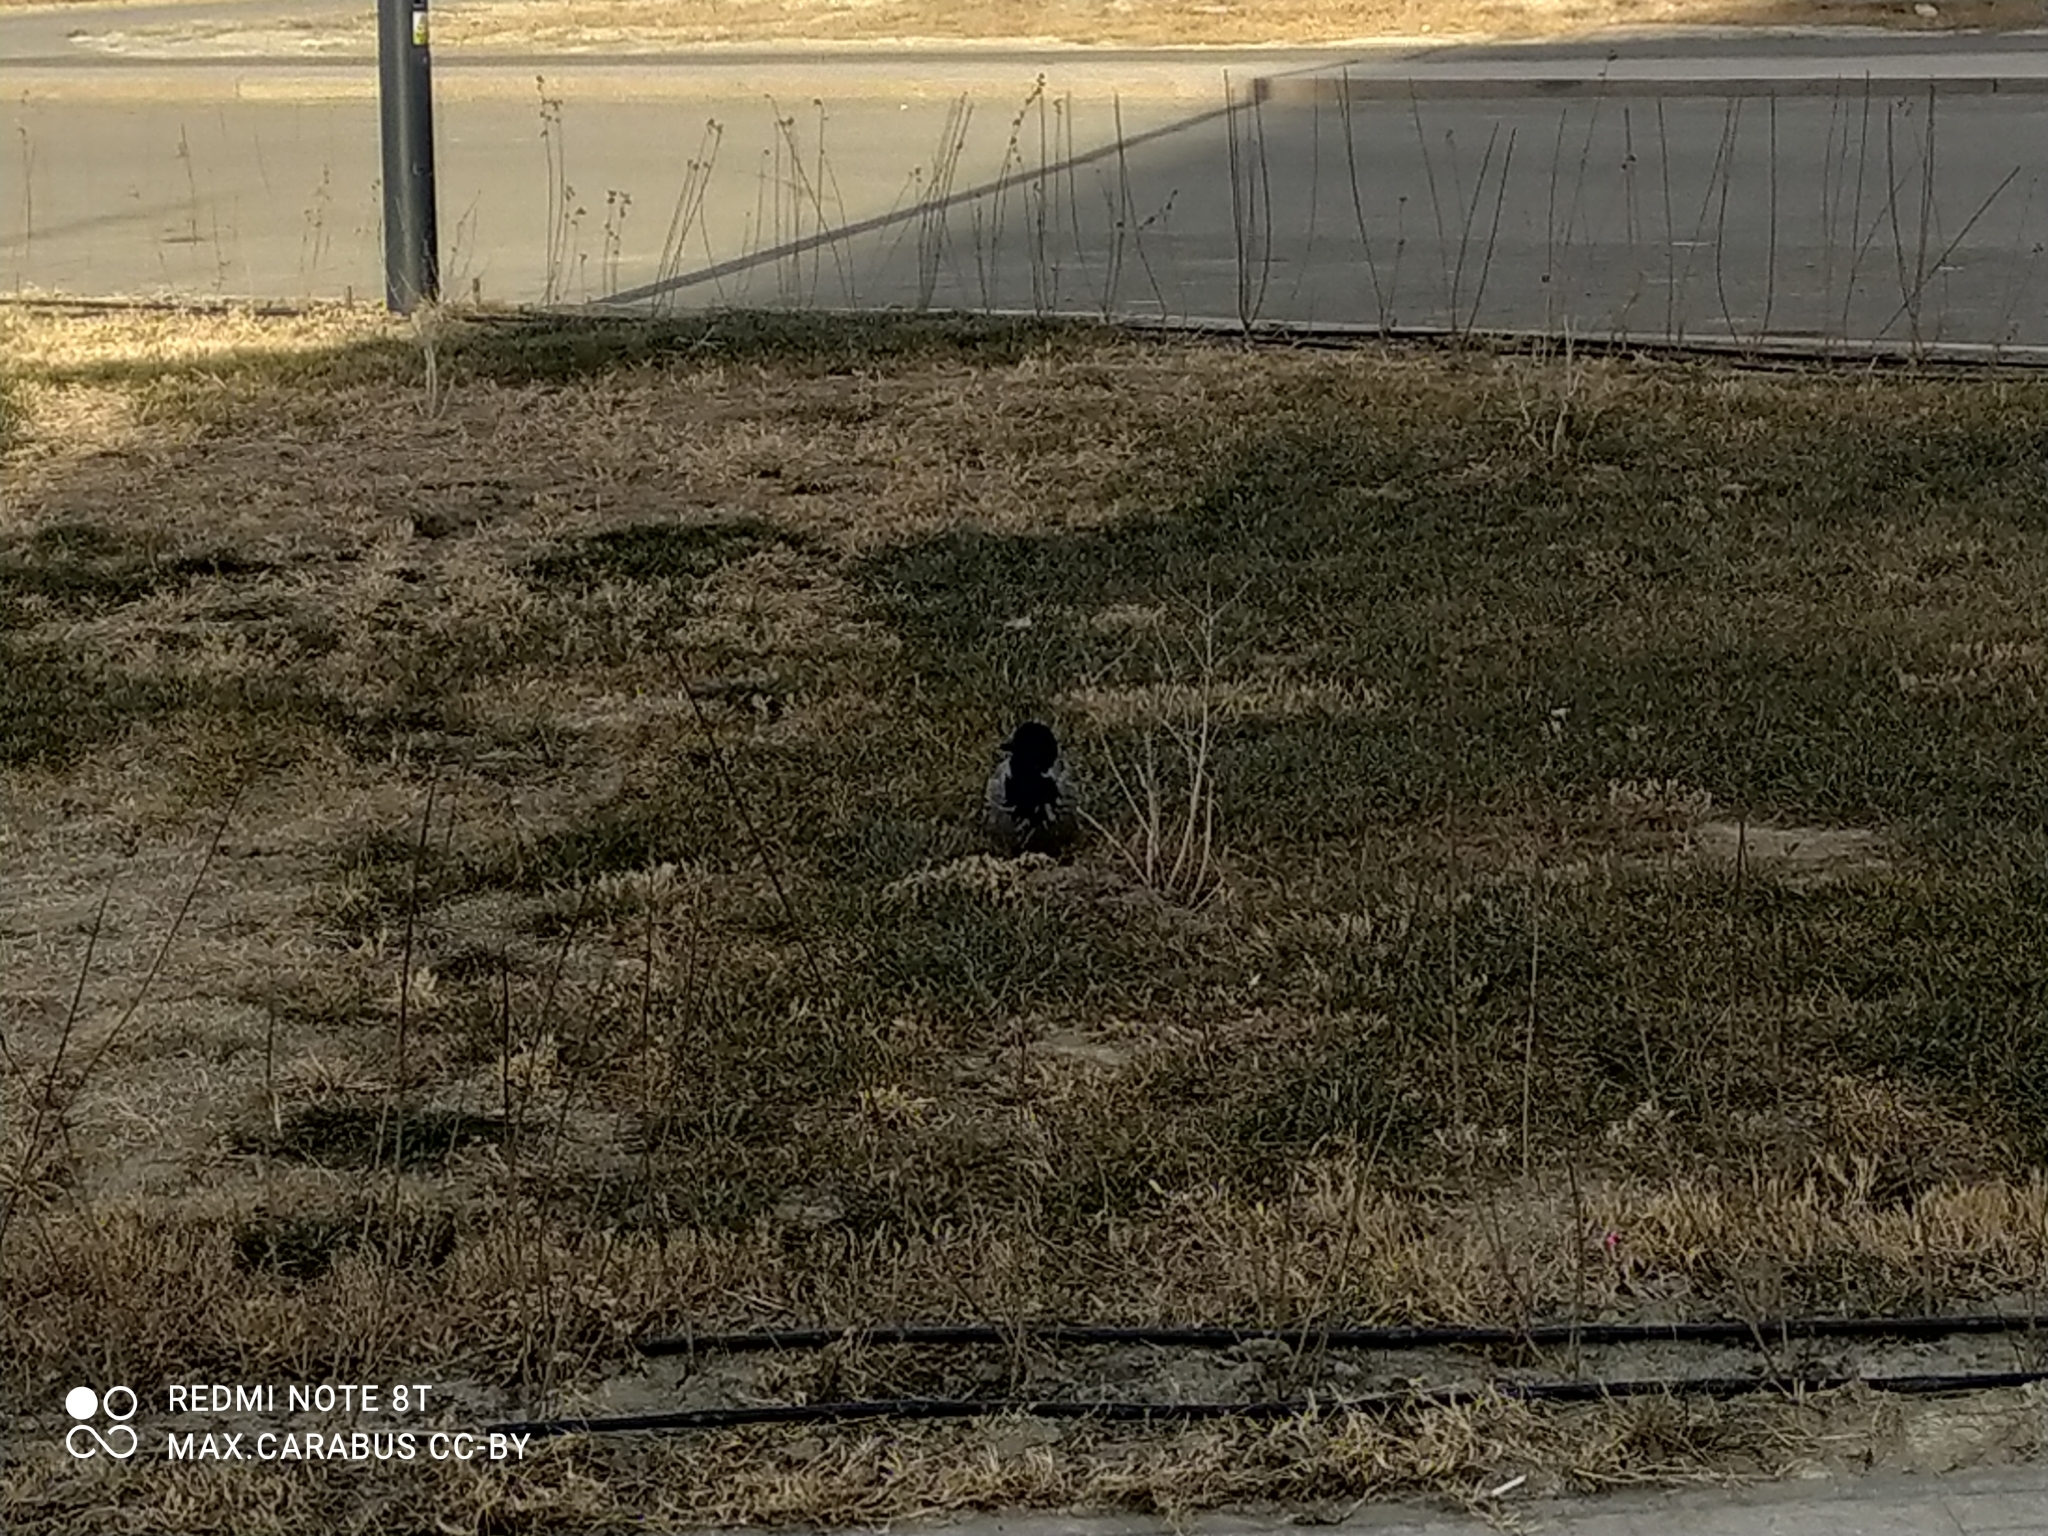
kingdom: Animalia
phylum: Chordata
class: Aves
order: Passeriformes
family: Corvidae
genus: Corvus
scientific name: Corvus cornix
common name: Hooded crow
